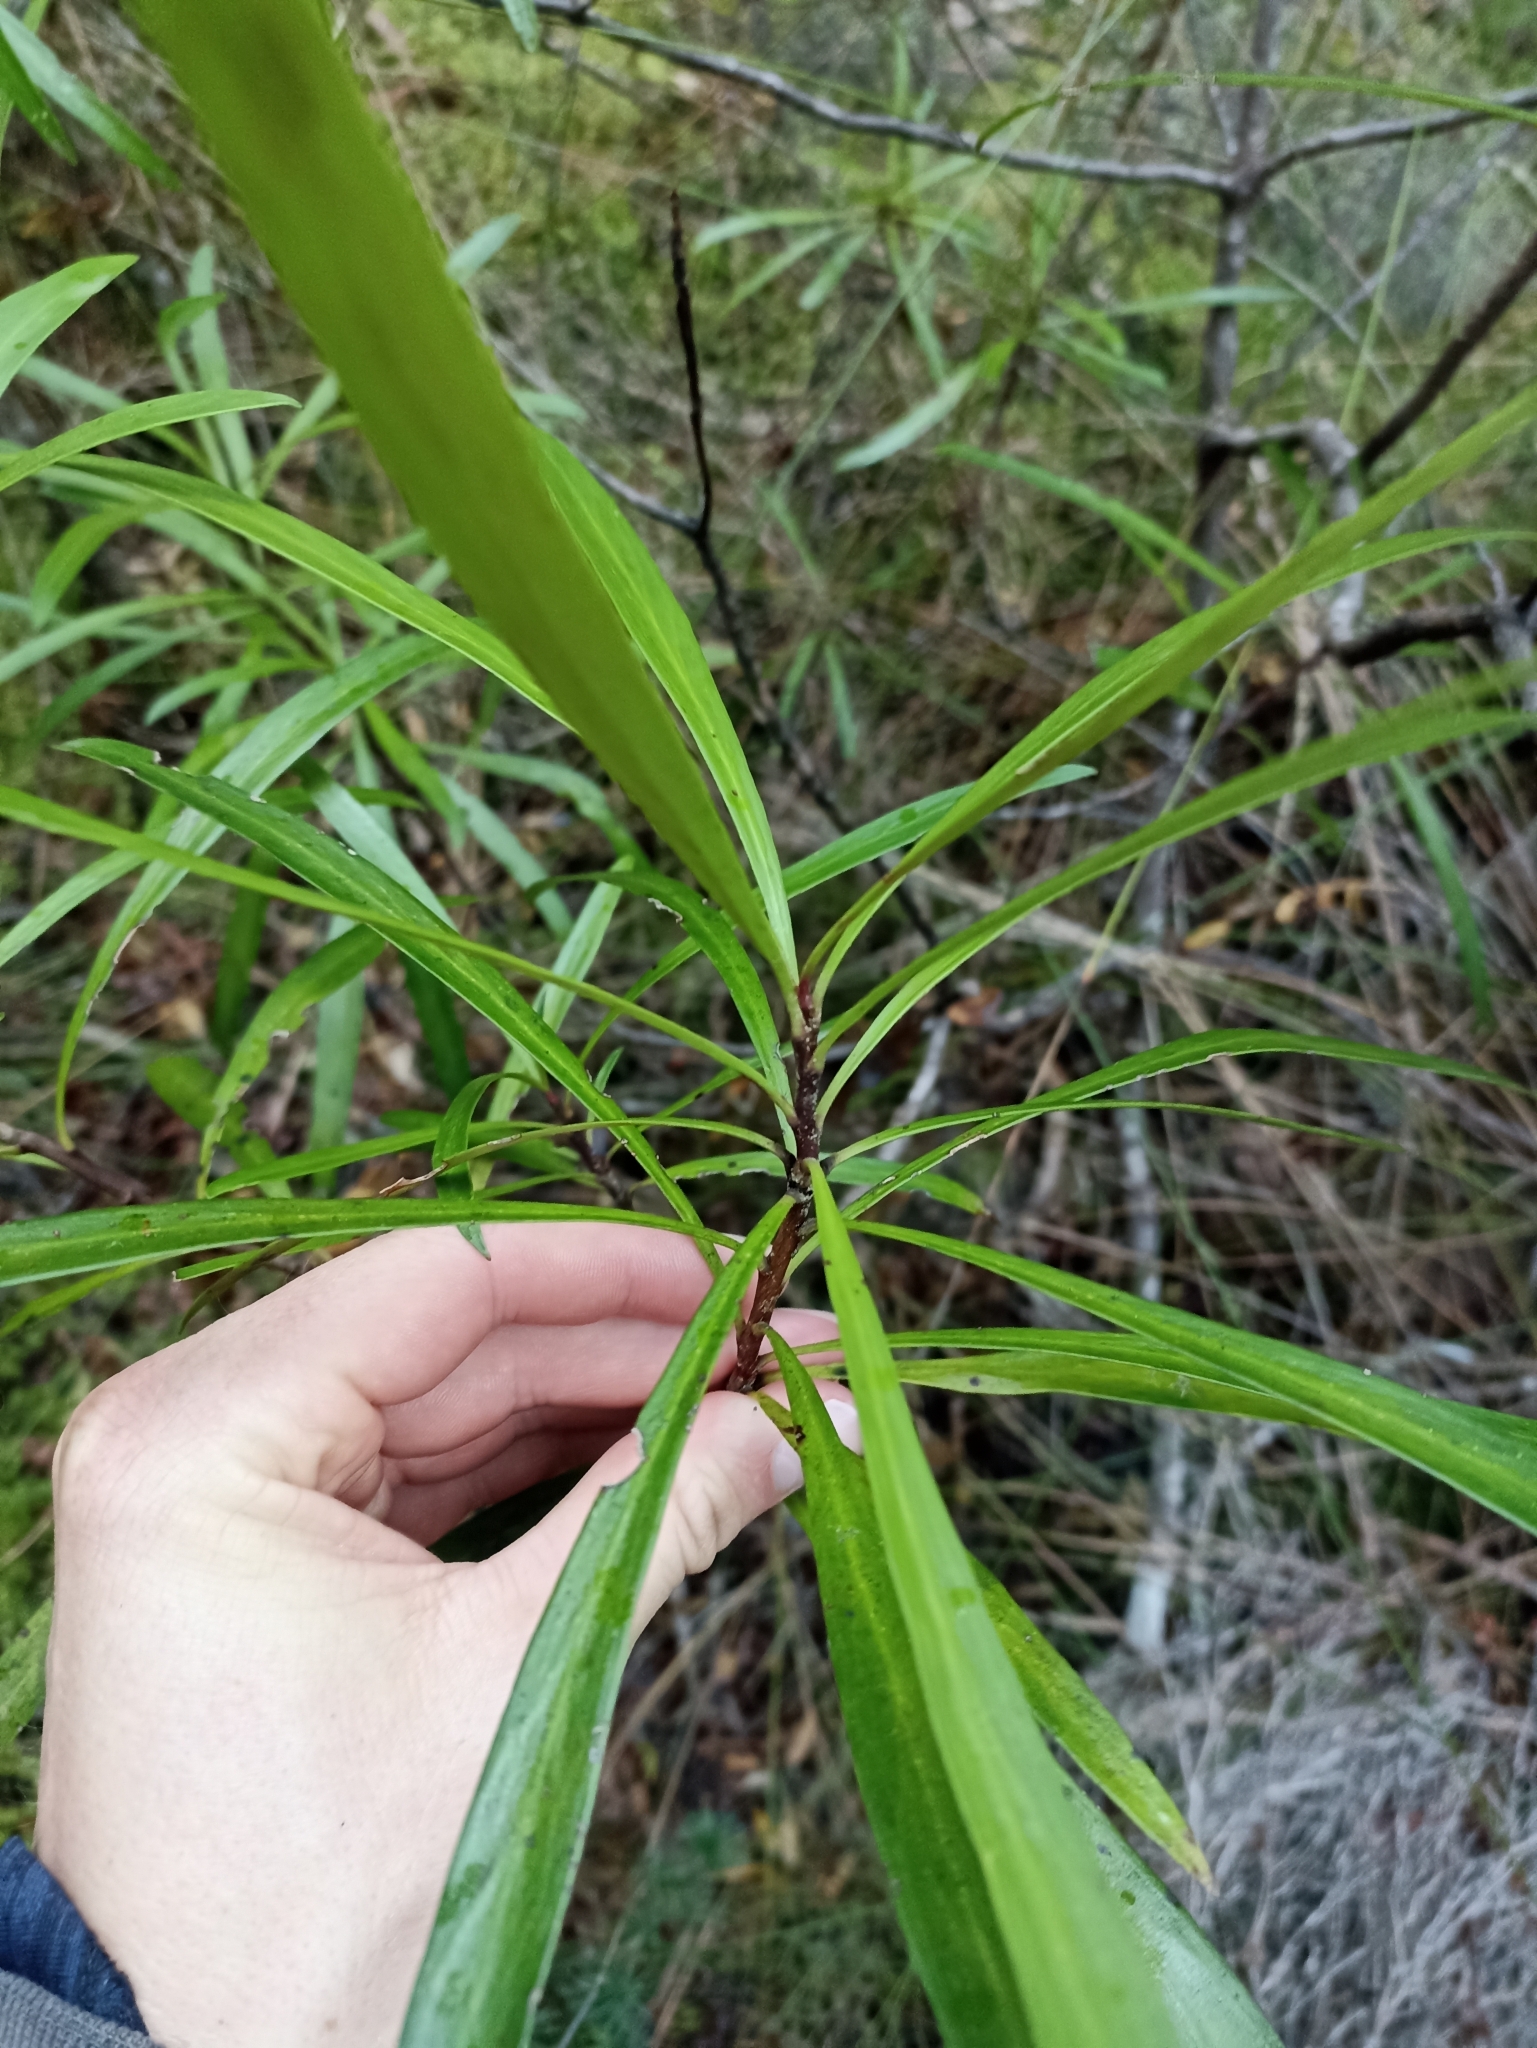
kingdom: Plantae
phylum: Tracheophyta
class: Magnoliopsida
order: Proteales
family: Proteaceae
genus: Toronia
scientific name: Toronia toru
